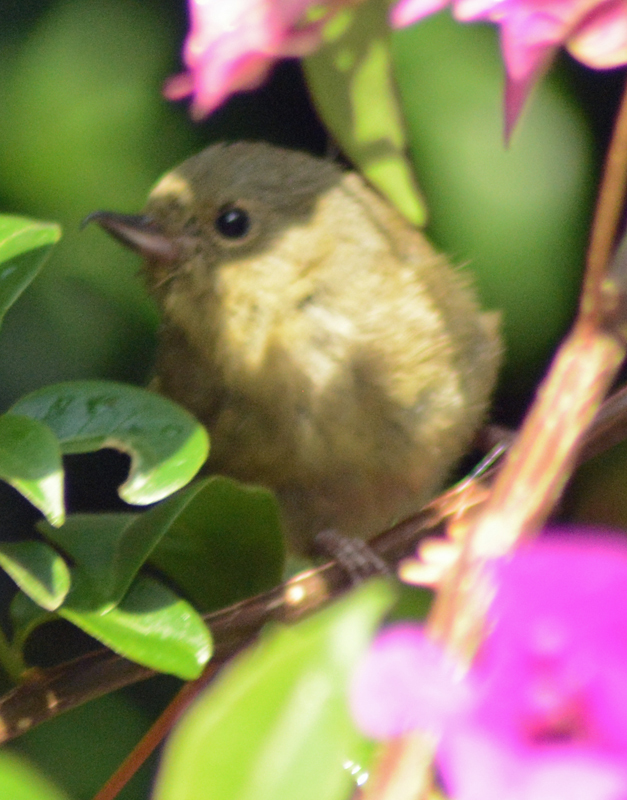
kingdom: Animalia
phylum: Chordata
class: Aves
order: Passeriformes
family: Thraupidae
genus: Diglossa
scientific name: Diglossa baritula
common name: Cinnamon-bellied flowerpiercer
